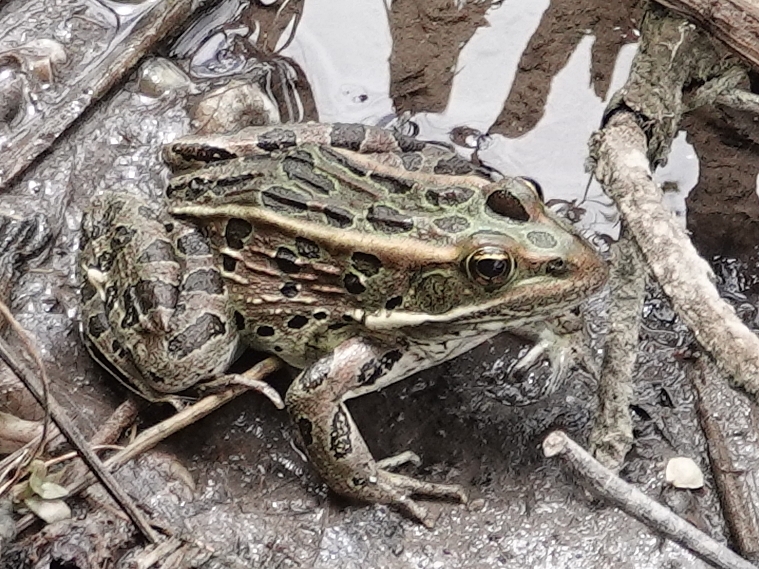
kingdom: Animalia
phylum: Chordata
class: Amphibia
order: Anura
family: Ranidae
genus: Lithobates
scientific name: Lithobates pipiens
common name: Northern leopard frog
